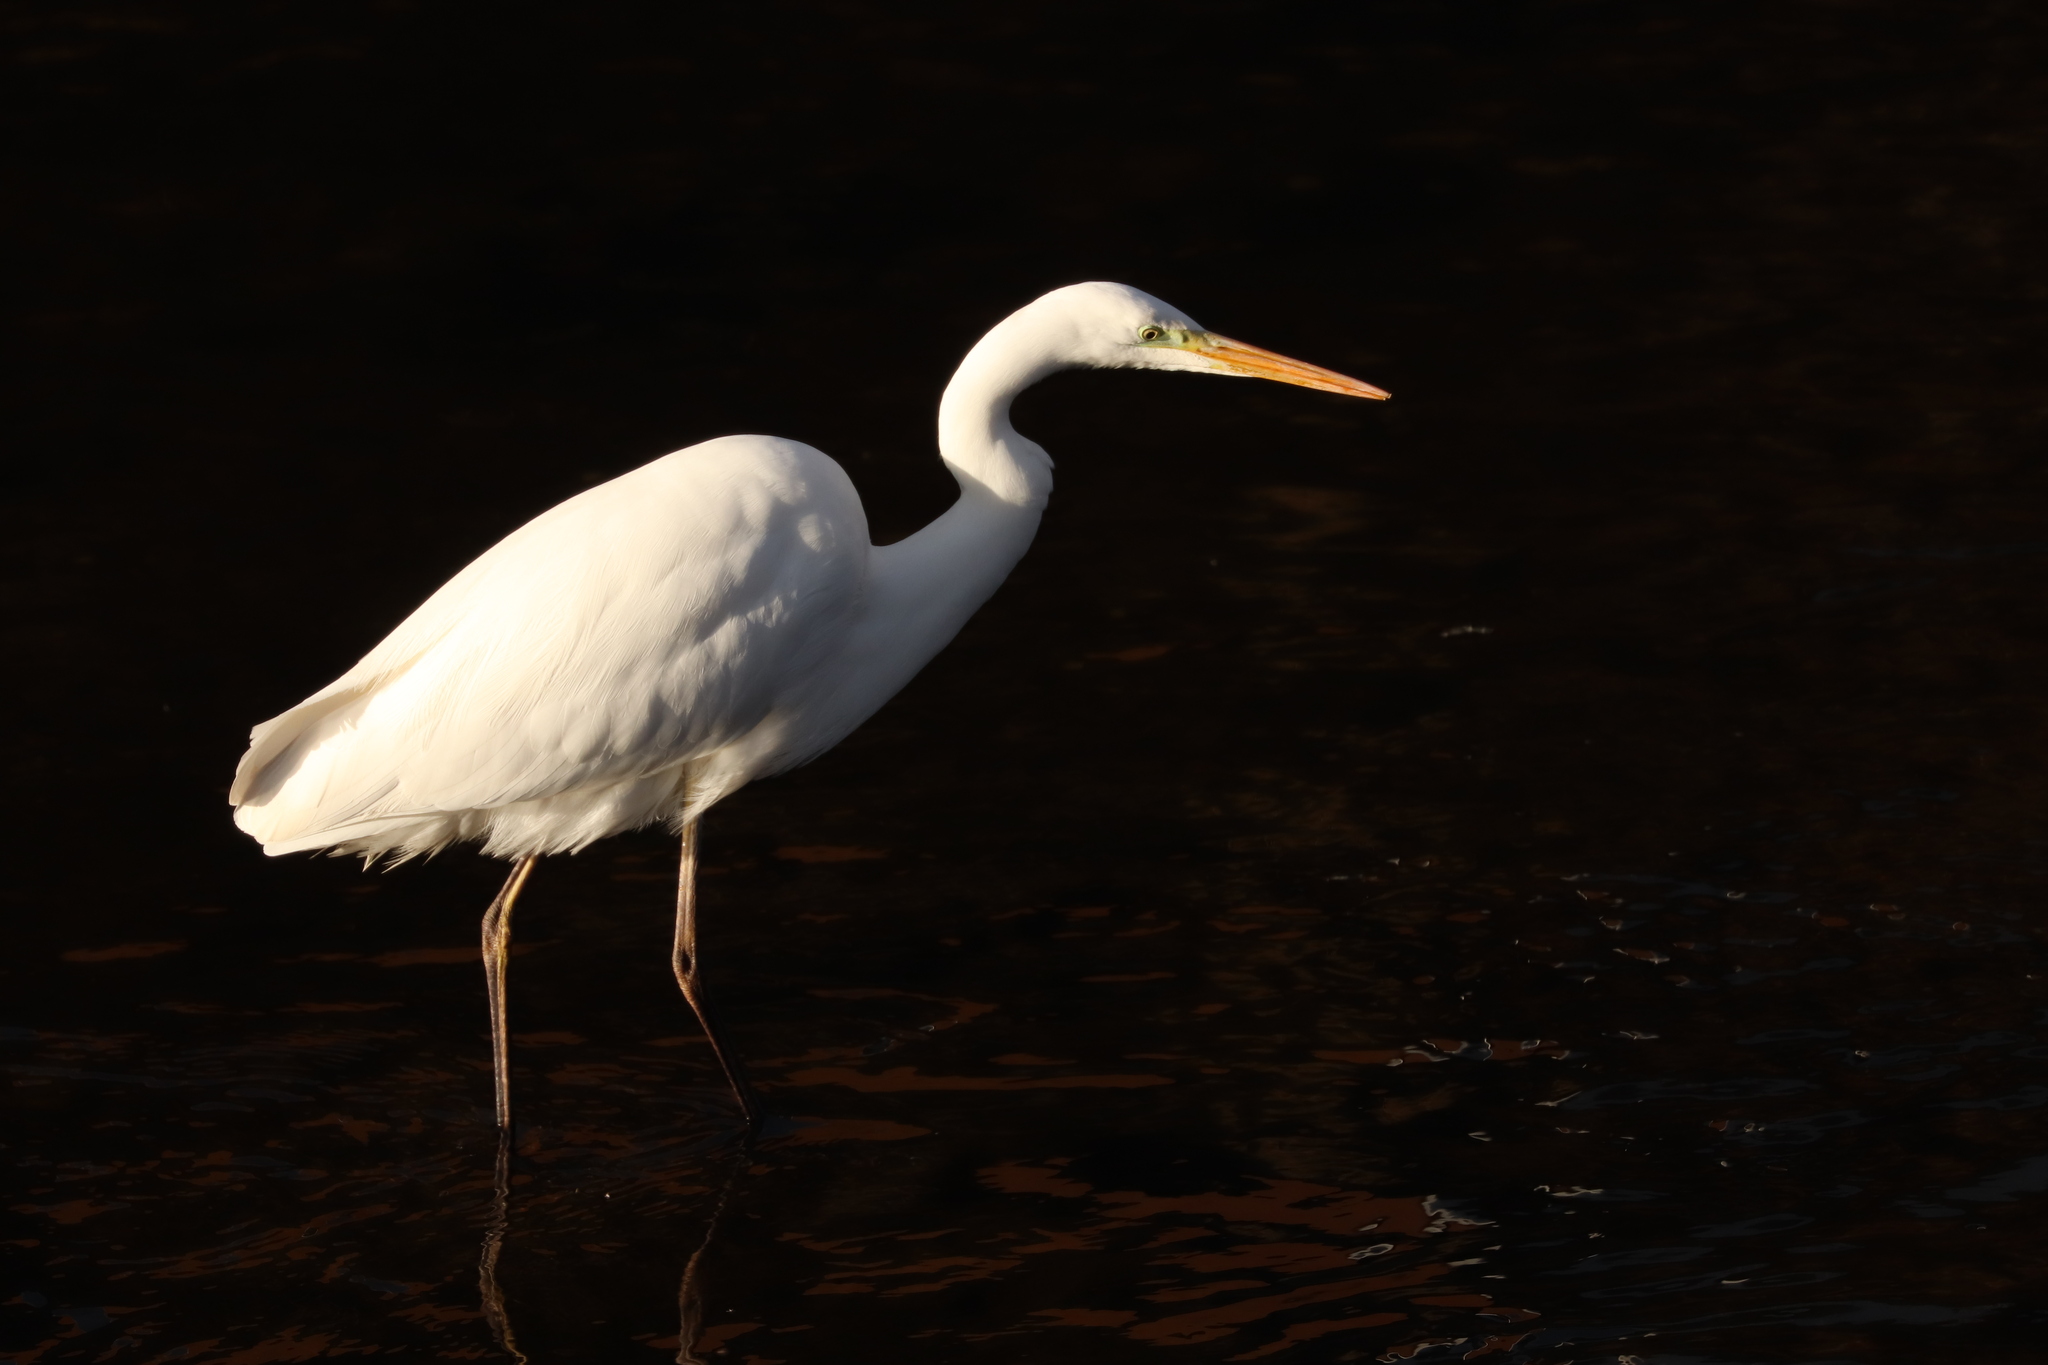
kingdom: Animalia
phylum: Chordata
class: Aves
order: Pelecaniformes
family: Ardeidae
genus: Ardea
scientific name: Ardea alba
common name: Great egret
